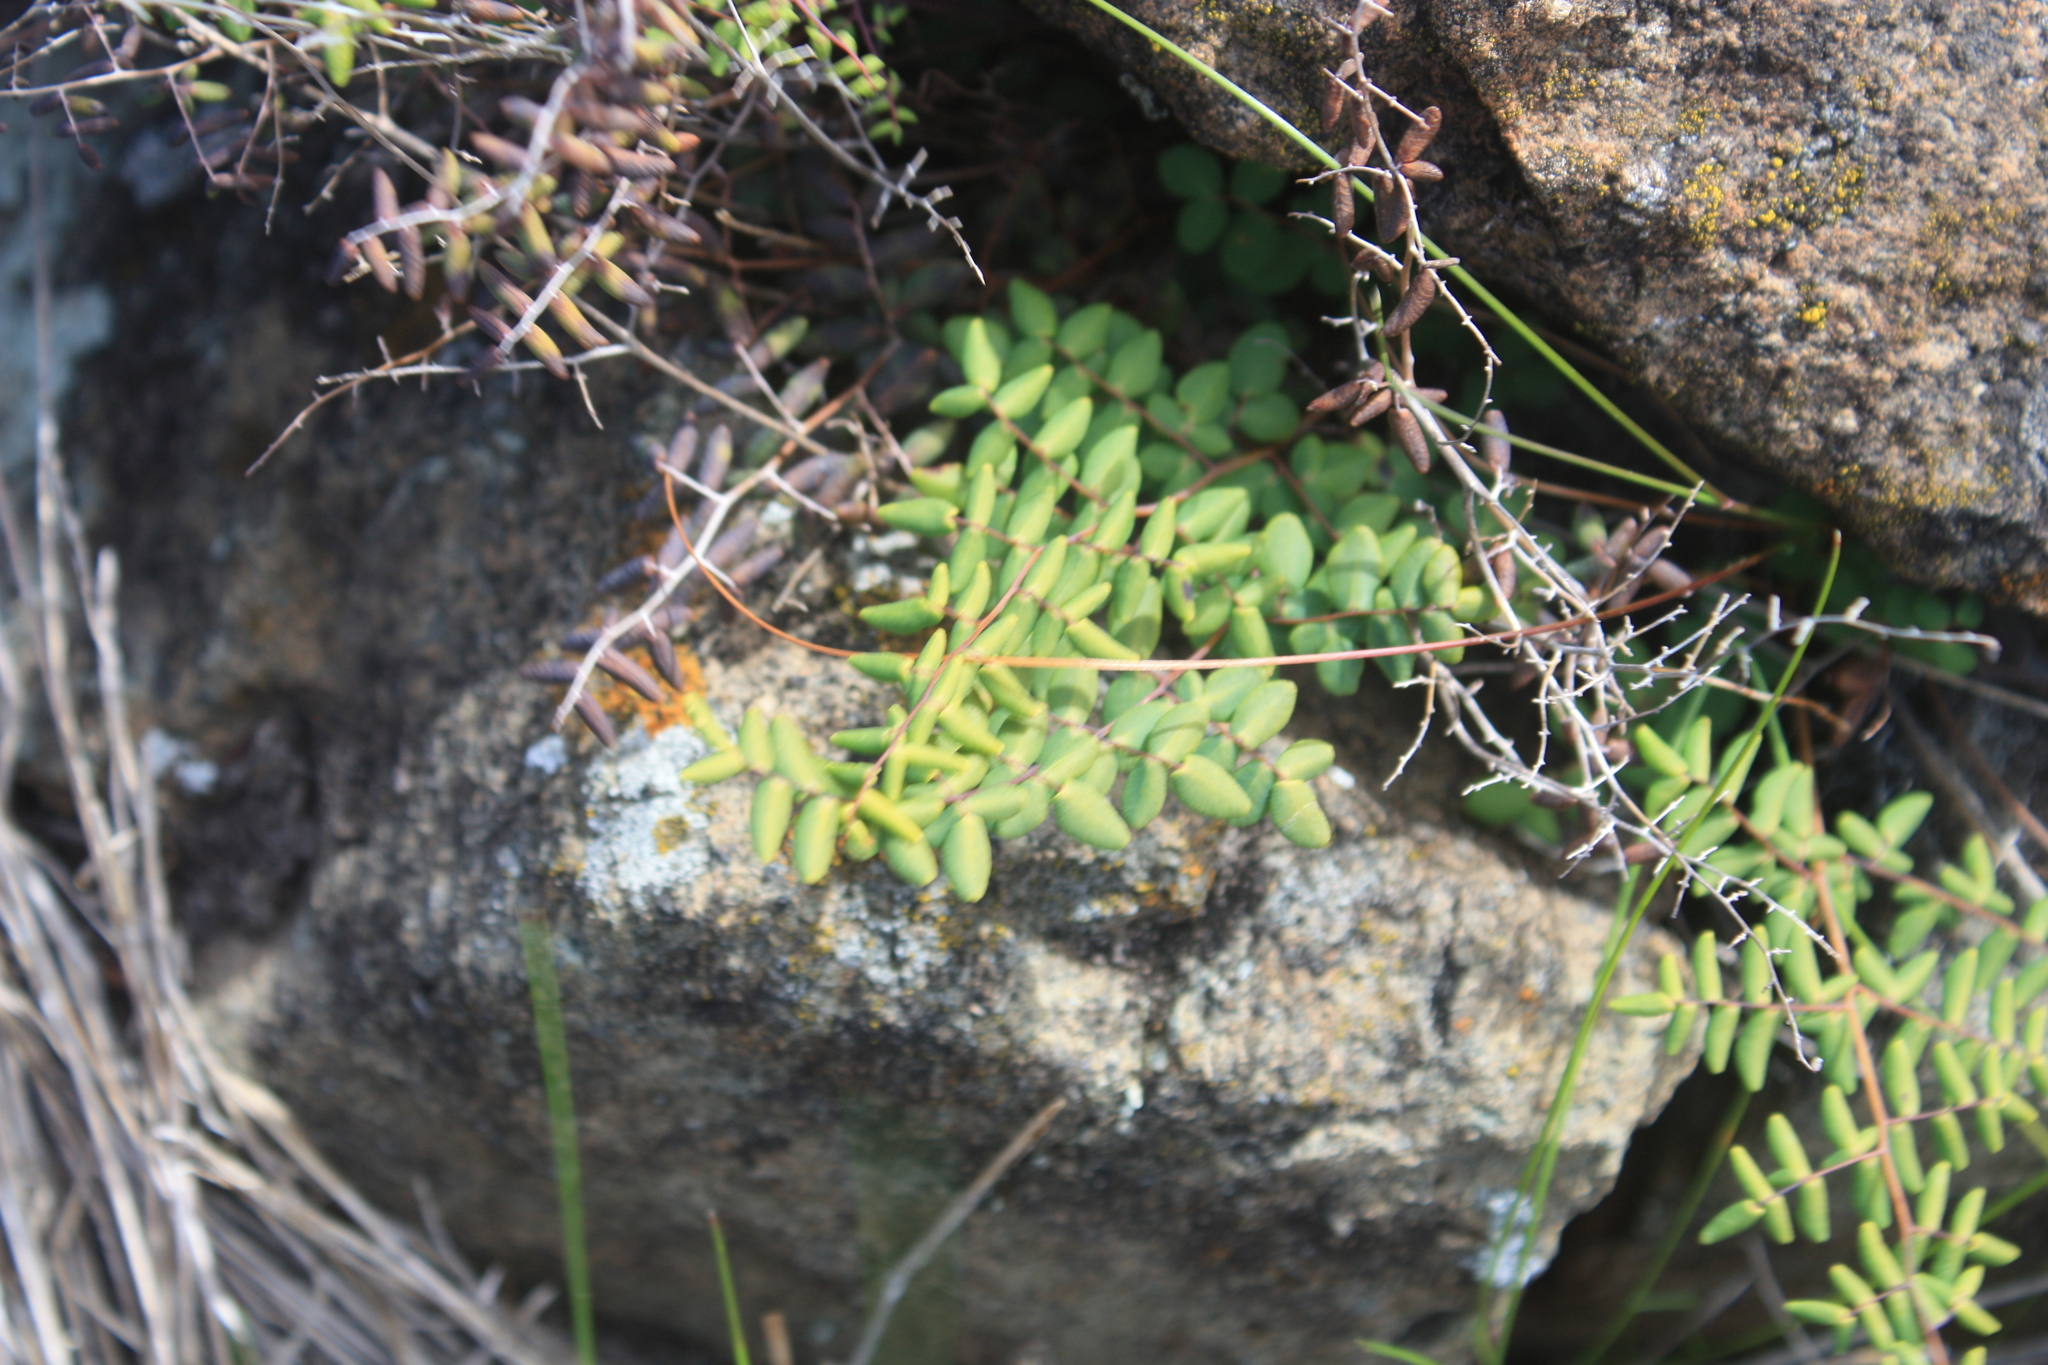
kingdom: Plantae
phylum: Tracheophyta
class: Polypodiopsida
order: Polypodiales
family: Pteridaceae
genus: Pellaea
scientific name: Pellaea andromedifolia
